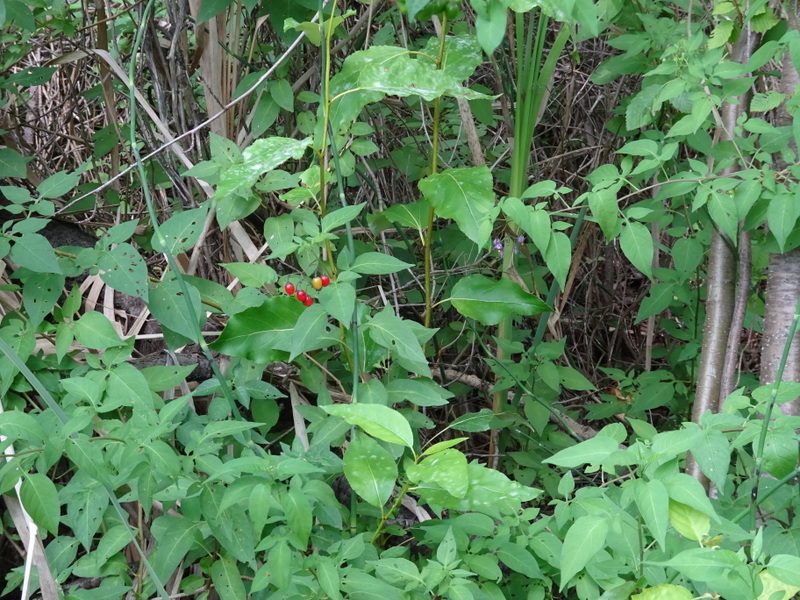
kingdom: Plantae
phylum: Tracheophyta
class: Magnoliopsida
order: Solanales
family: Solanaceae
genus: Solanum
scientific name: Solanum dulcamara
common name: Climbing nightshade
